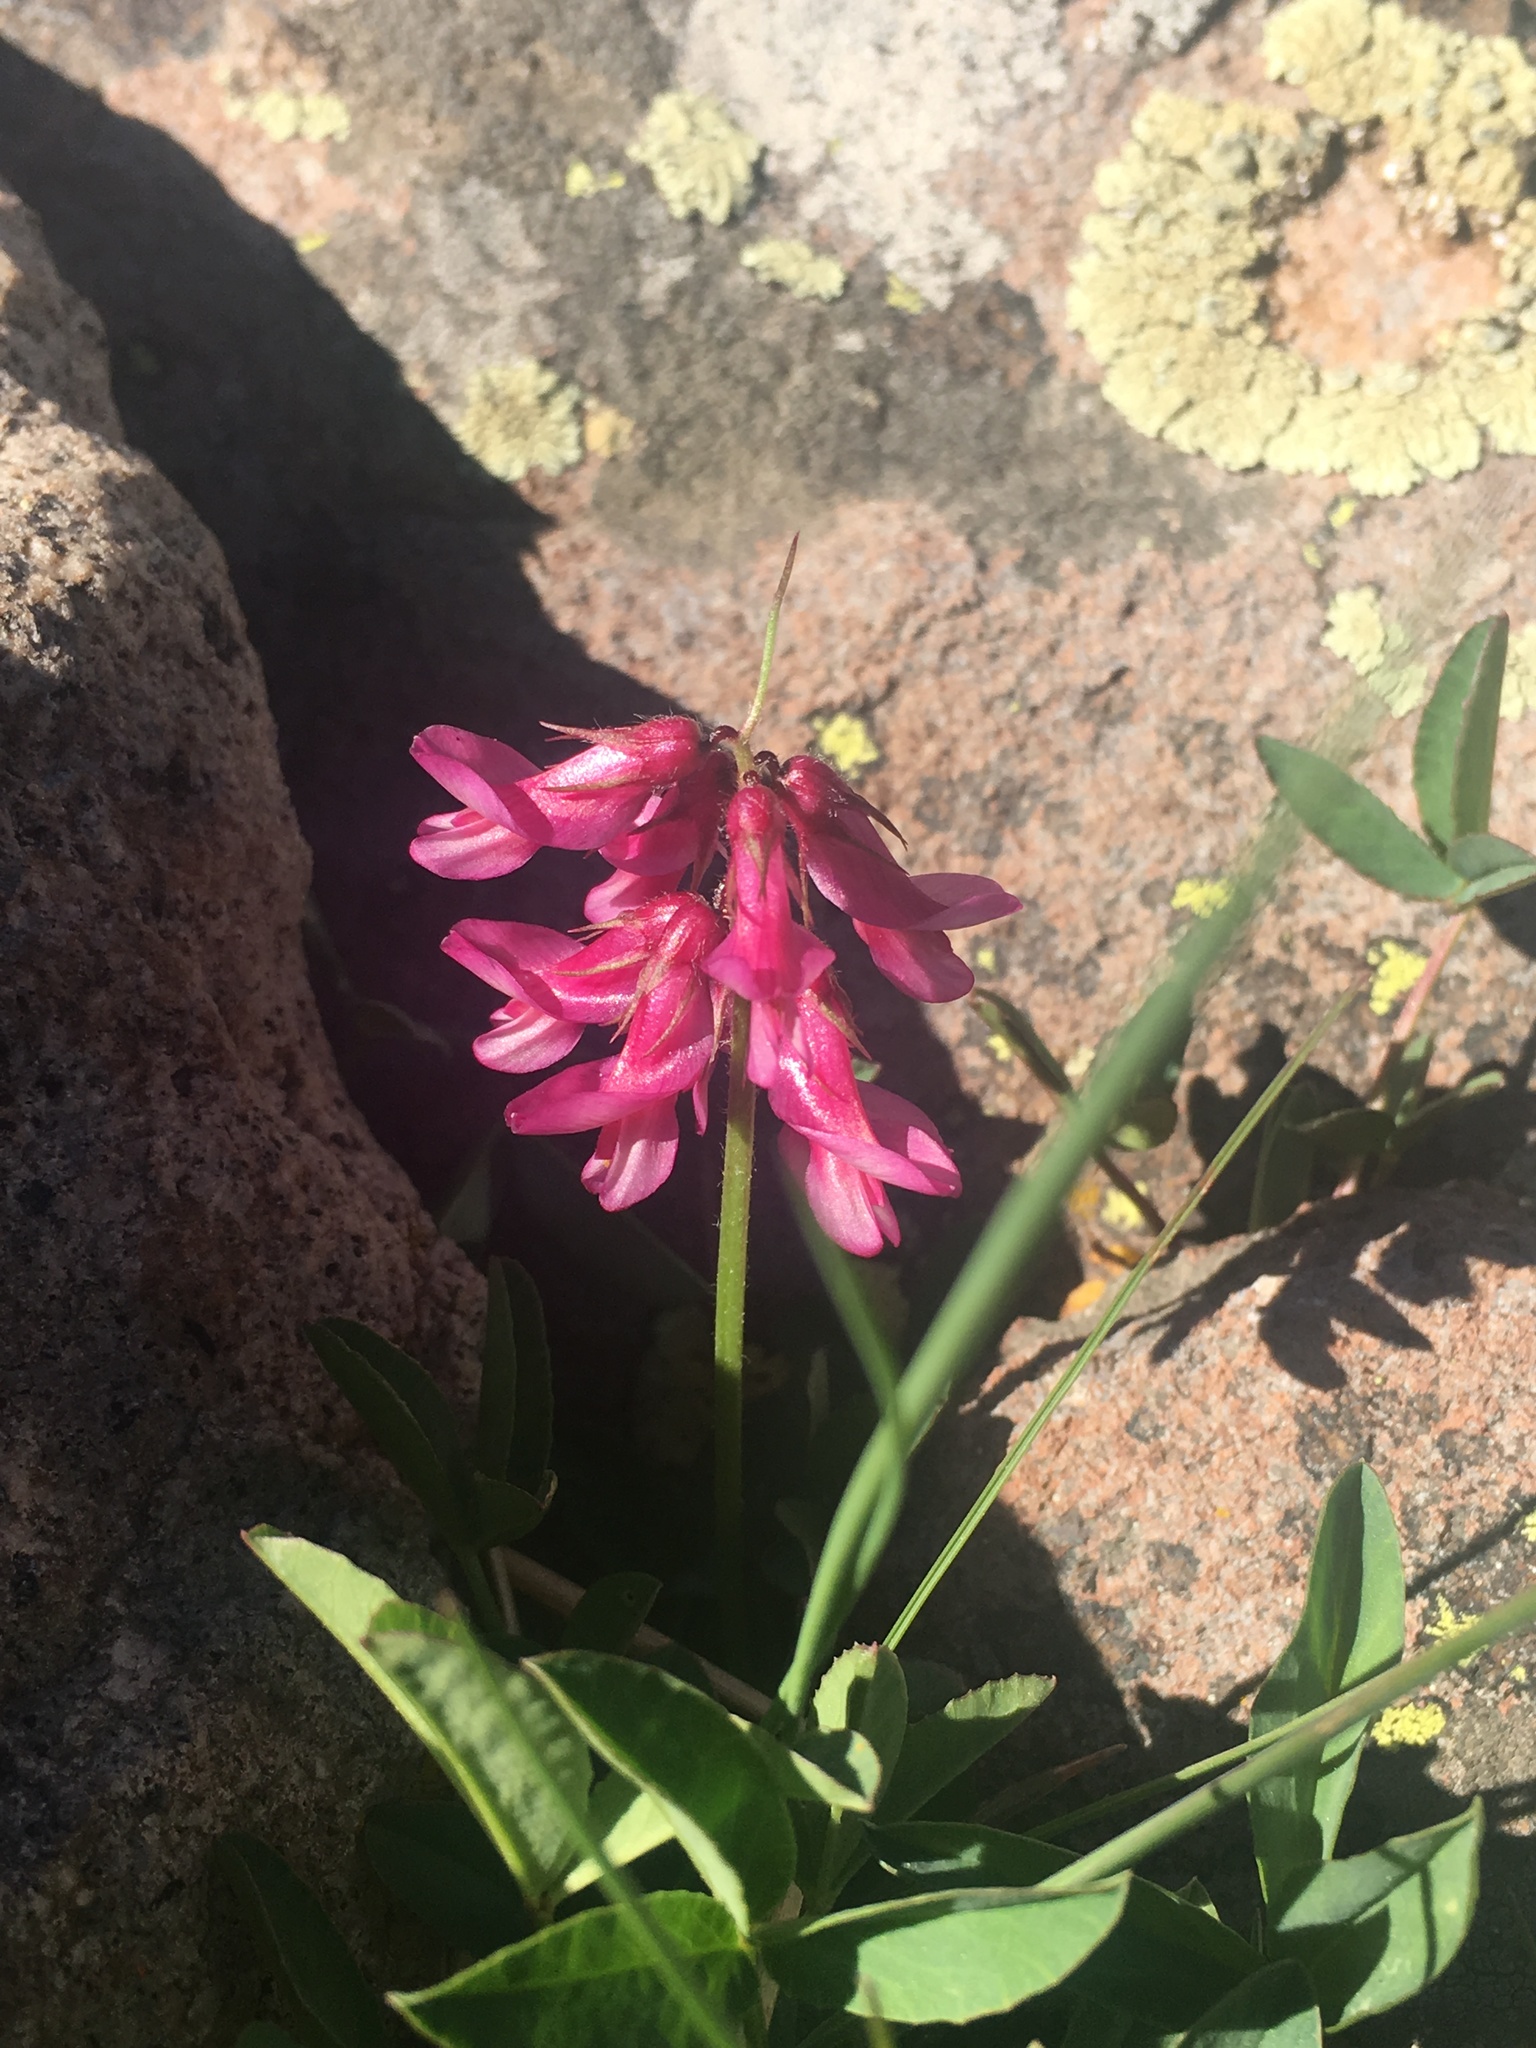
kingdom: Plantae
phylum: Tracheophyta
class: Magnoliopsida
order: Fabales
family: Fabaceae
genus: Trifolium
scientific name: Trifolium brandegeei
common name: Brandegee's clover
